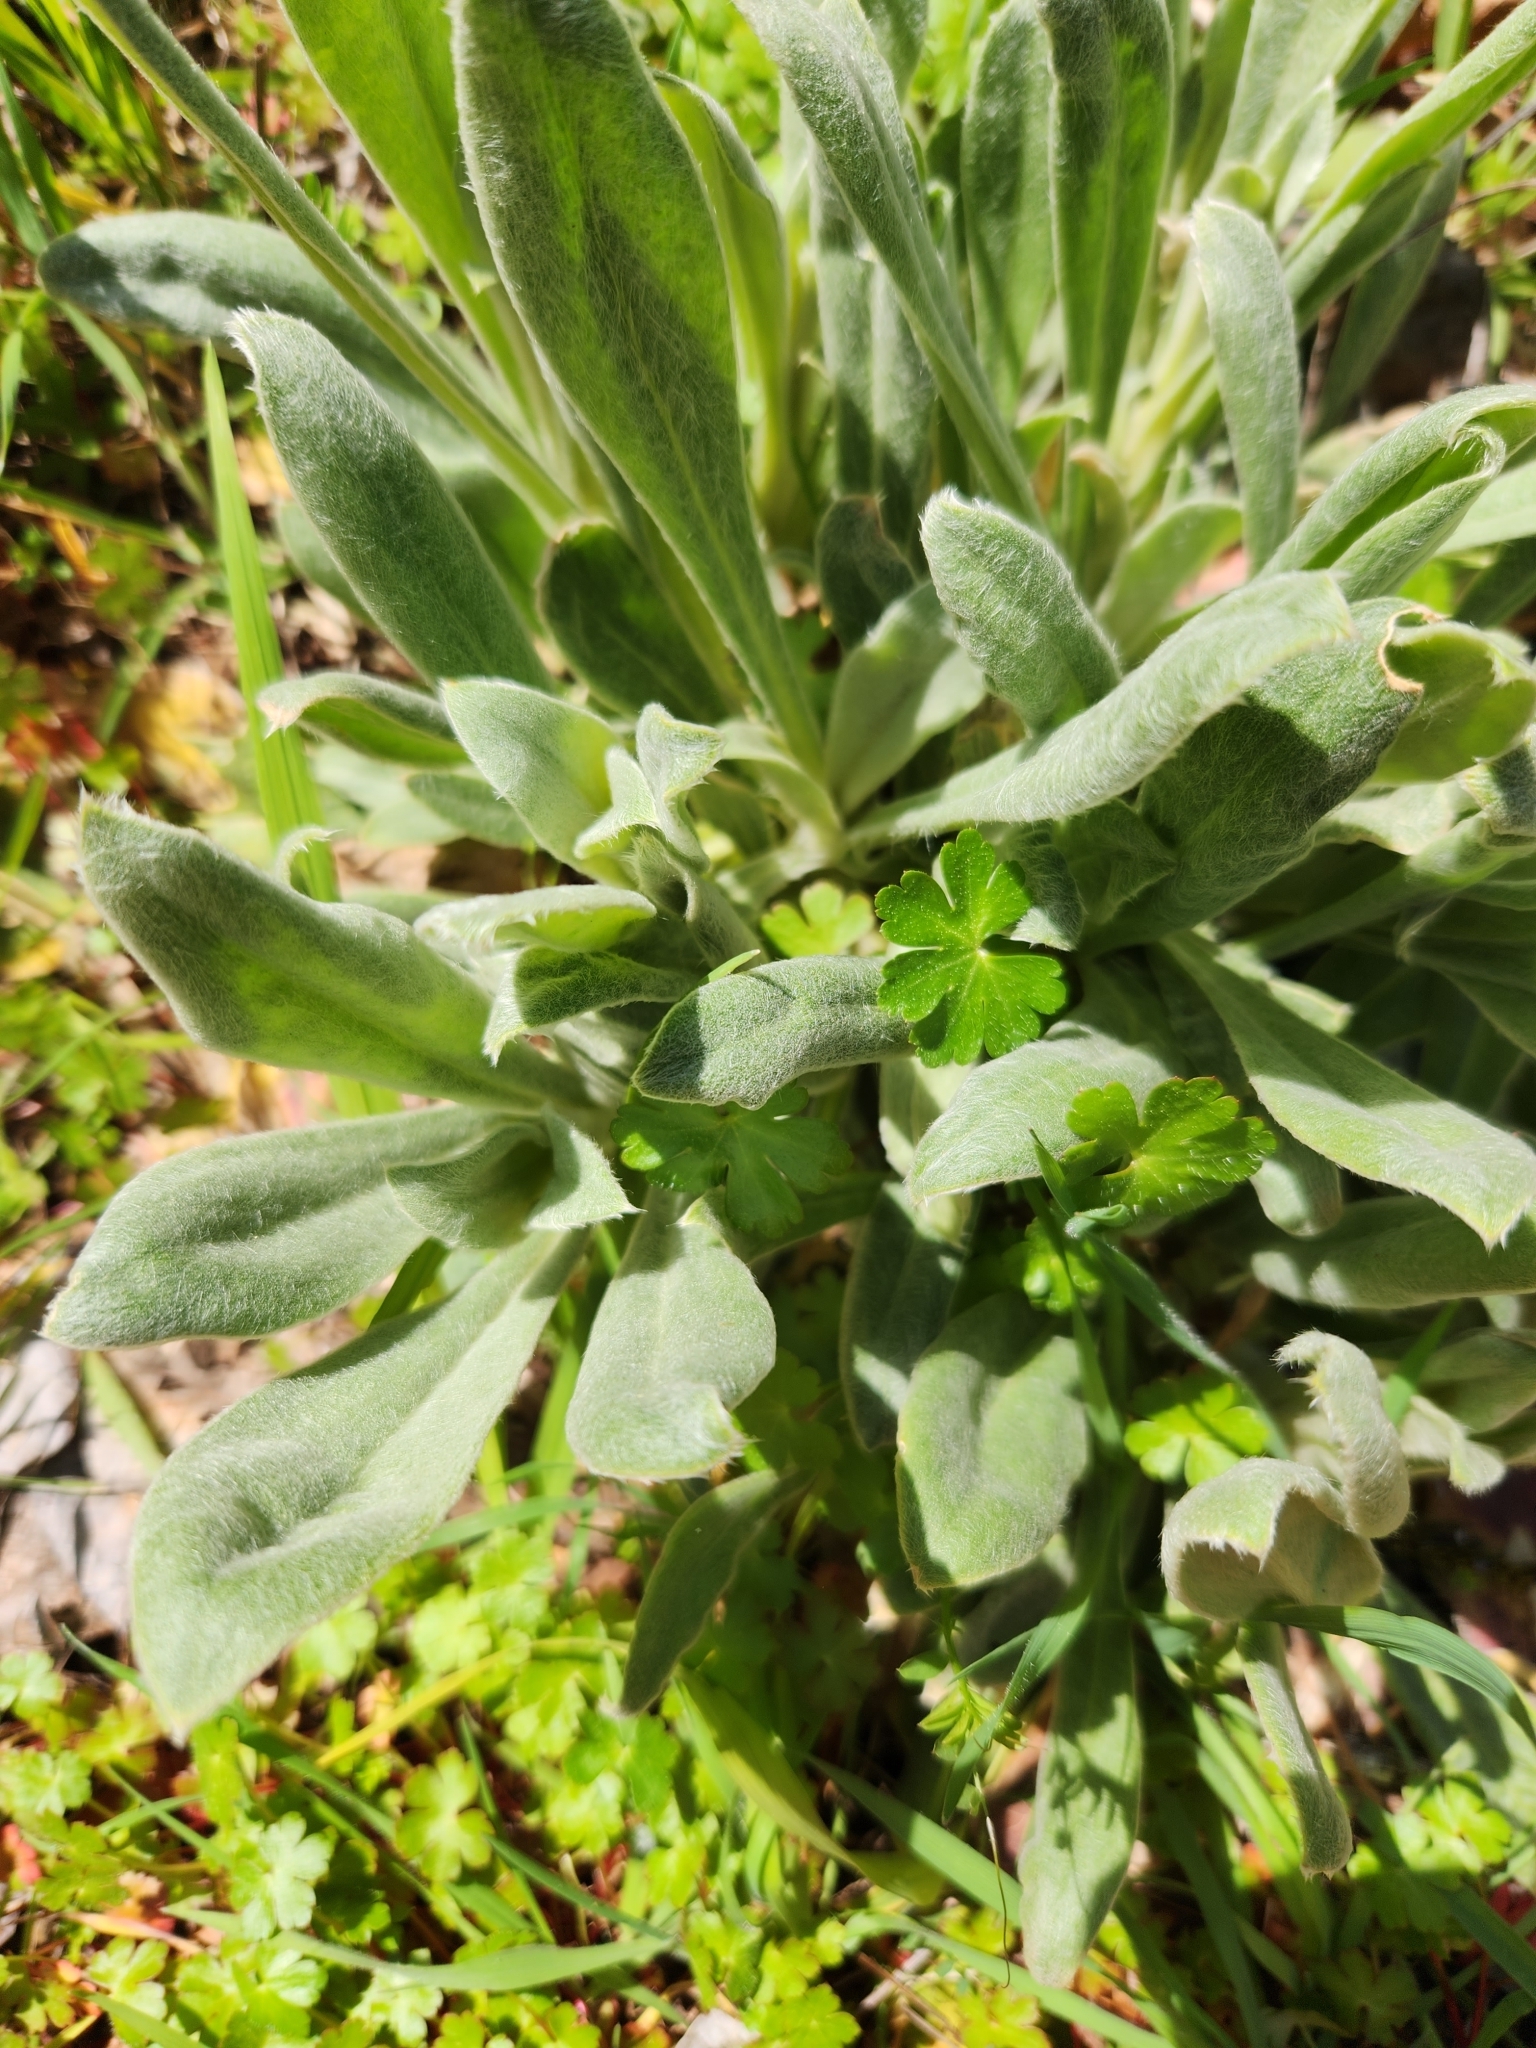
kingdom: Plantae
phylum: Tracheophyta
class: Magnoliopsida
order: Caryophyllales
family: Caryophyllaceae
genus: Silene
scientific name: Silene coronaria
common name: Rose campion
